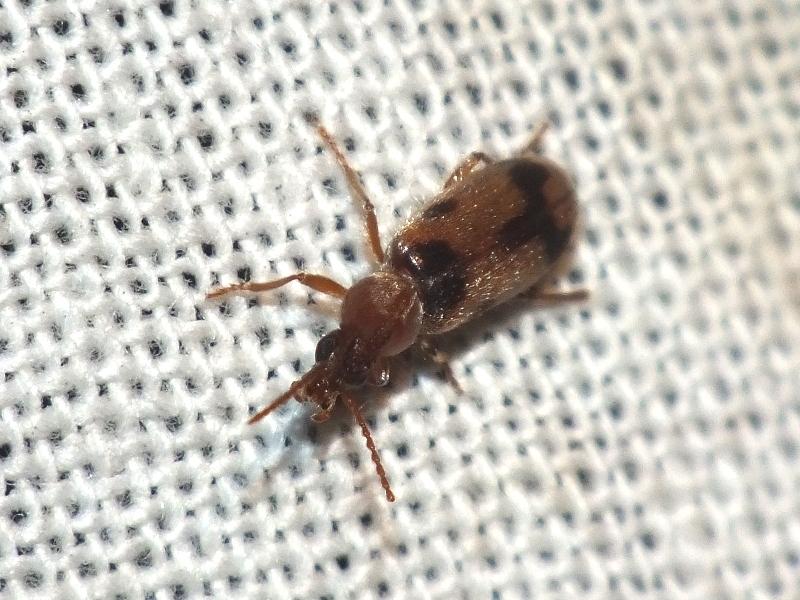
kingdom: Animalia
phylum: Arthropoda
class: Insecta
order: Coleoptera
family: Anthicidae
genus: Notoxus
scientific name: Notoxus monoceros
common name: Monoceros beetle
